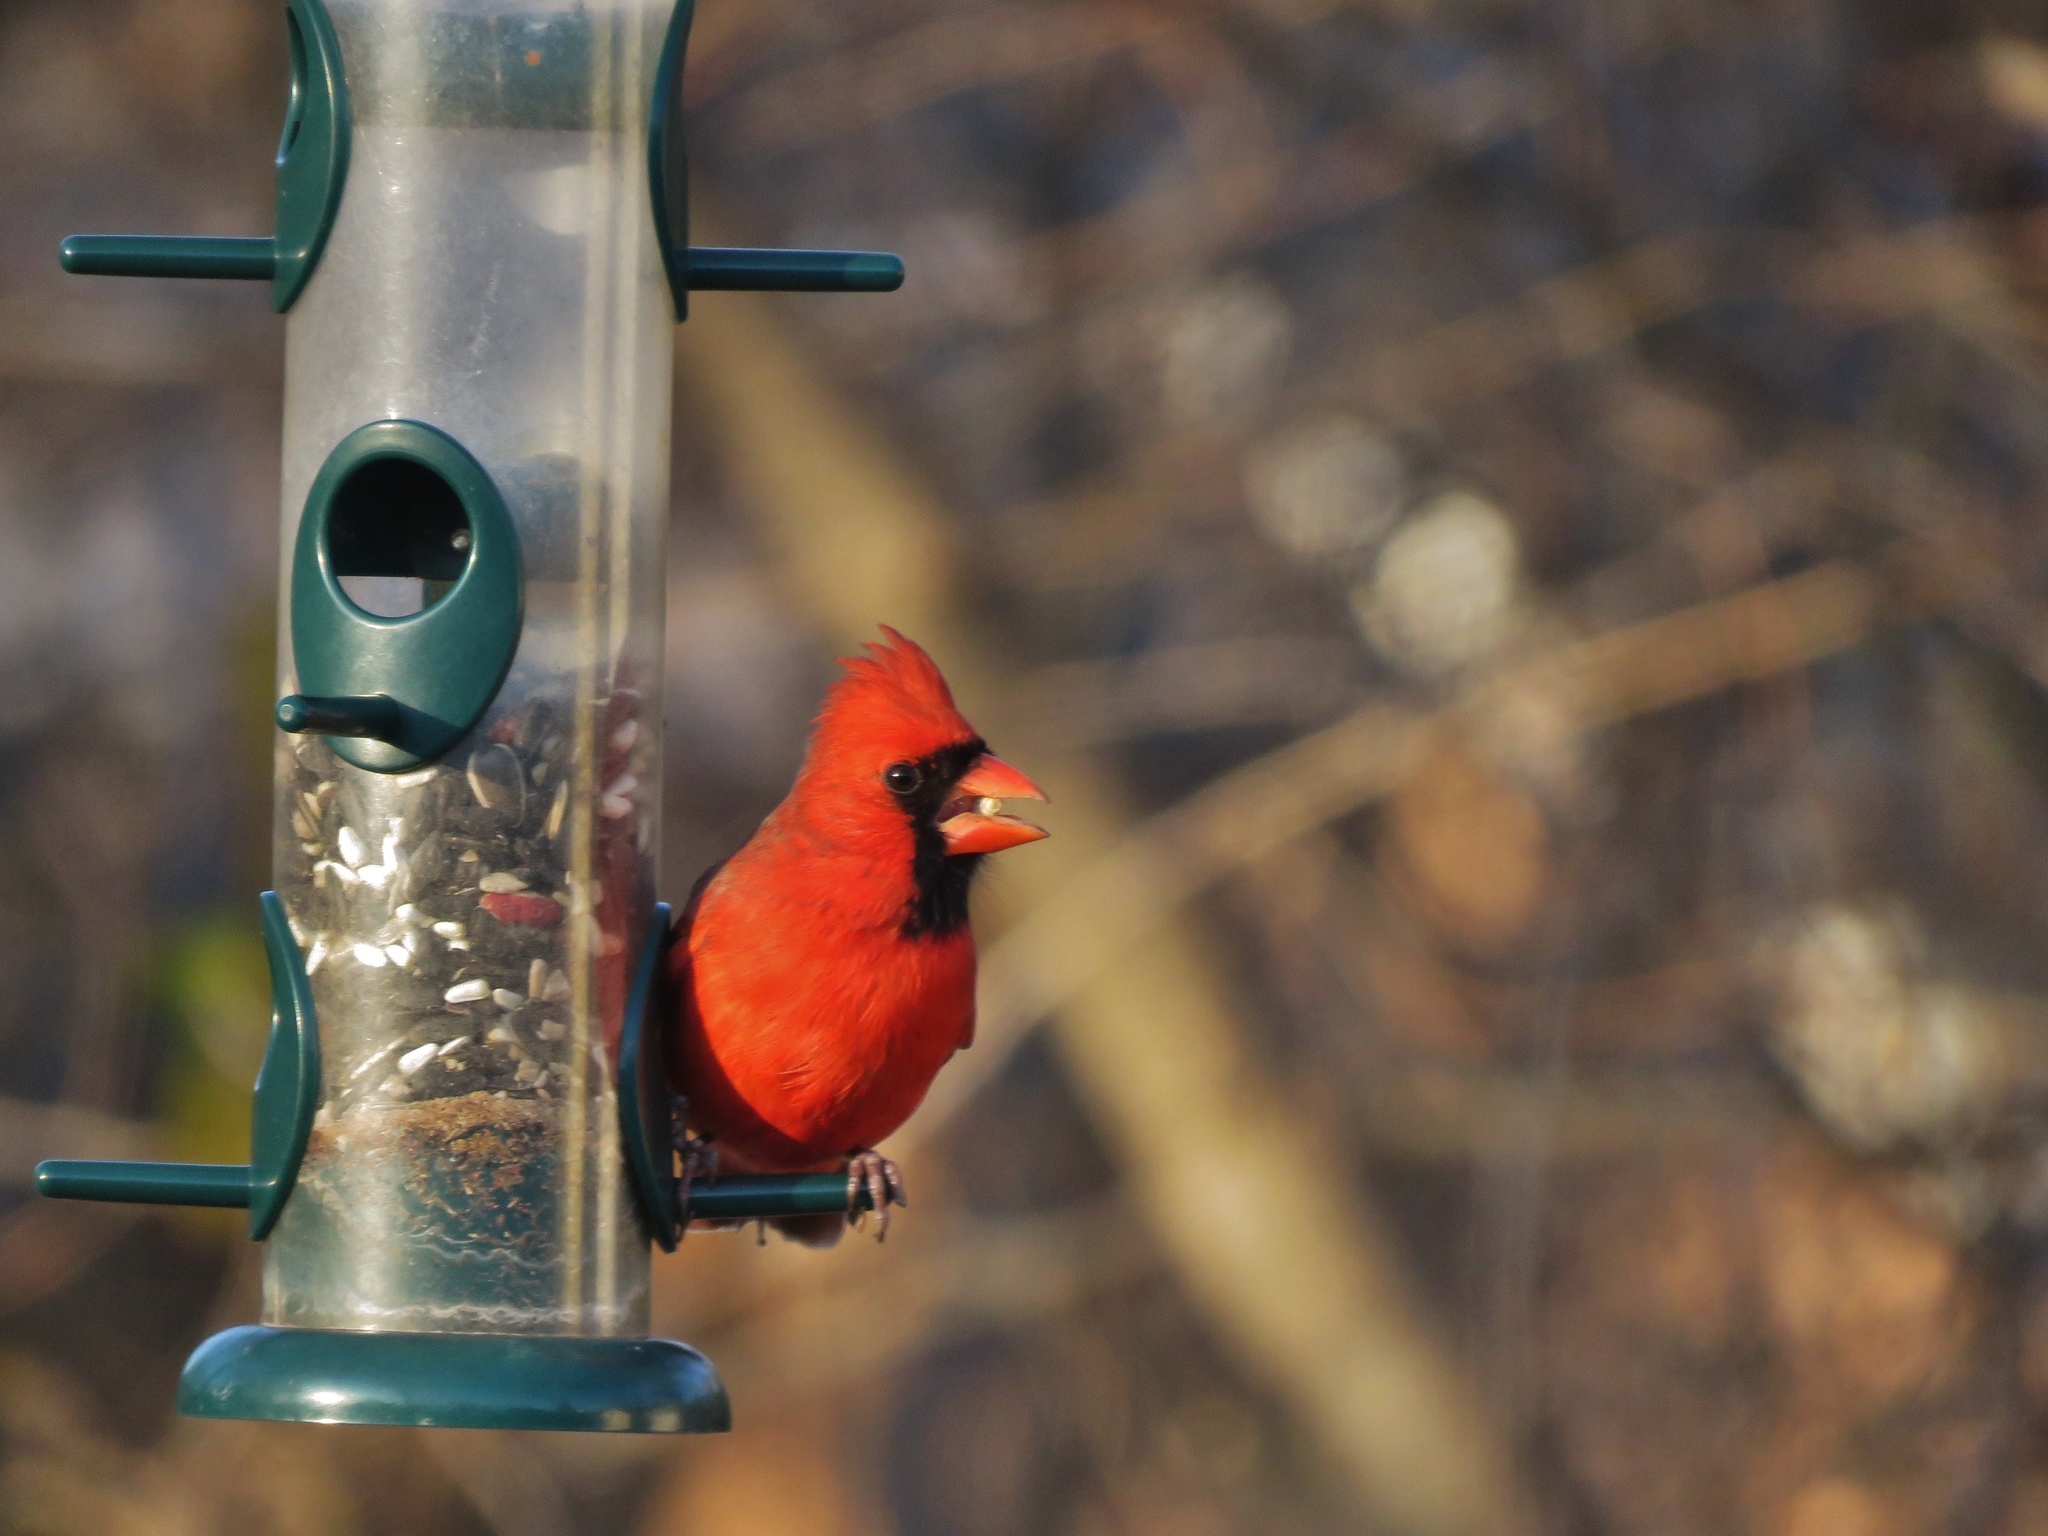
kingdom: Animalia
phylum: Chordata
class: Aves
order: Passeriformes
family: Cardinalidae
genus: Cardinalis
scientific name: Cardinalis cardinalis
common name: Northern cardinal
